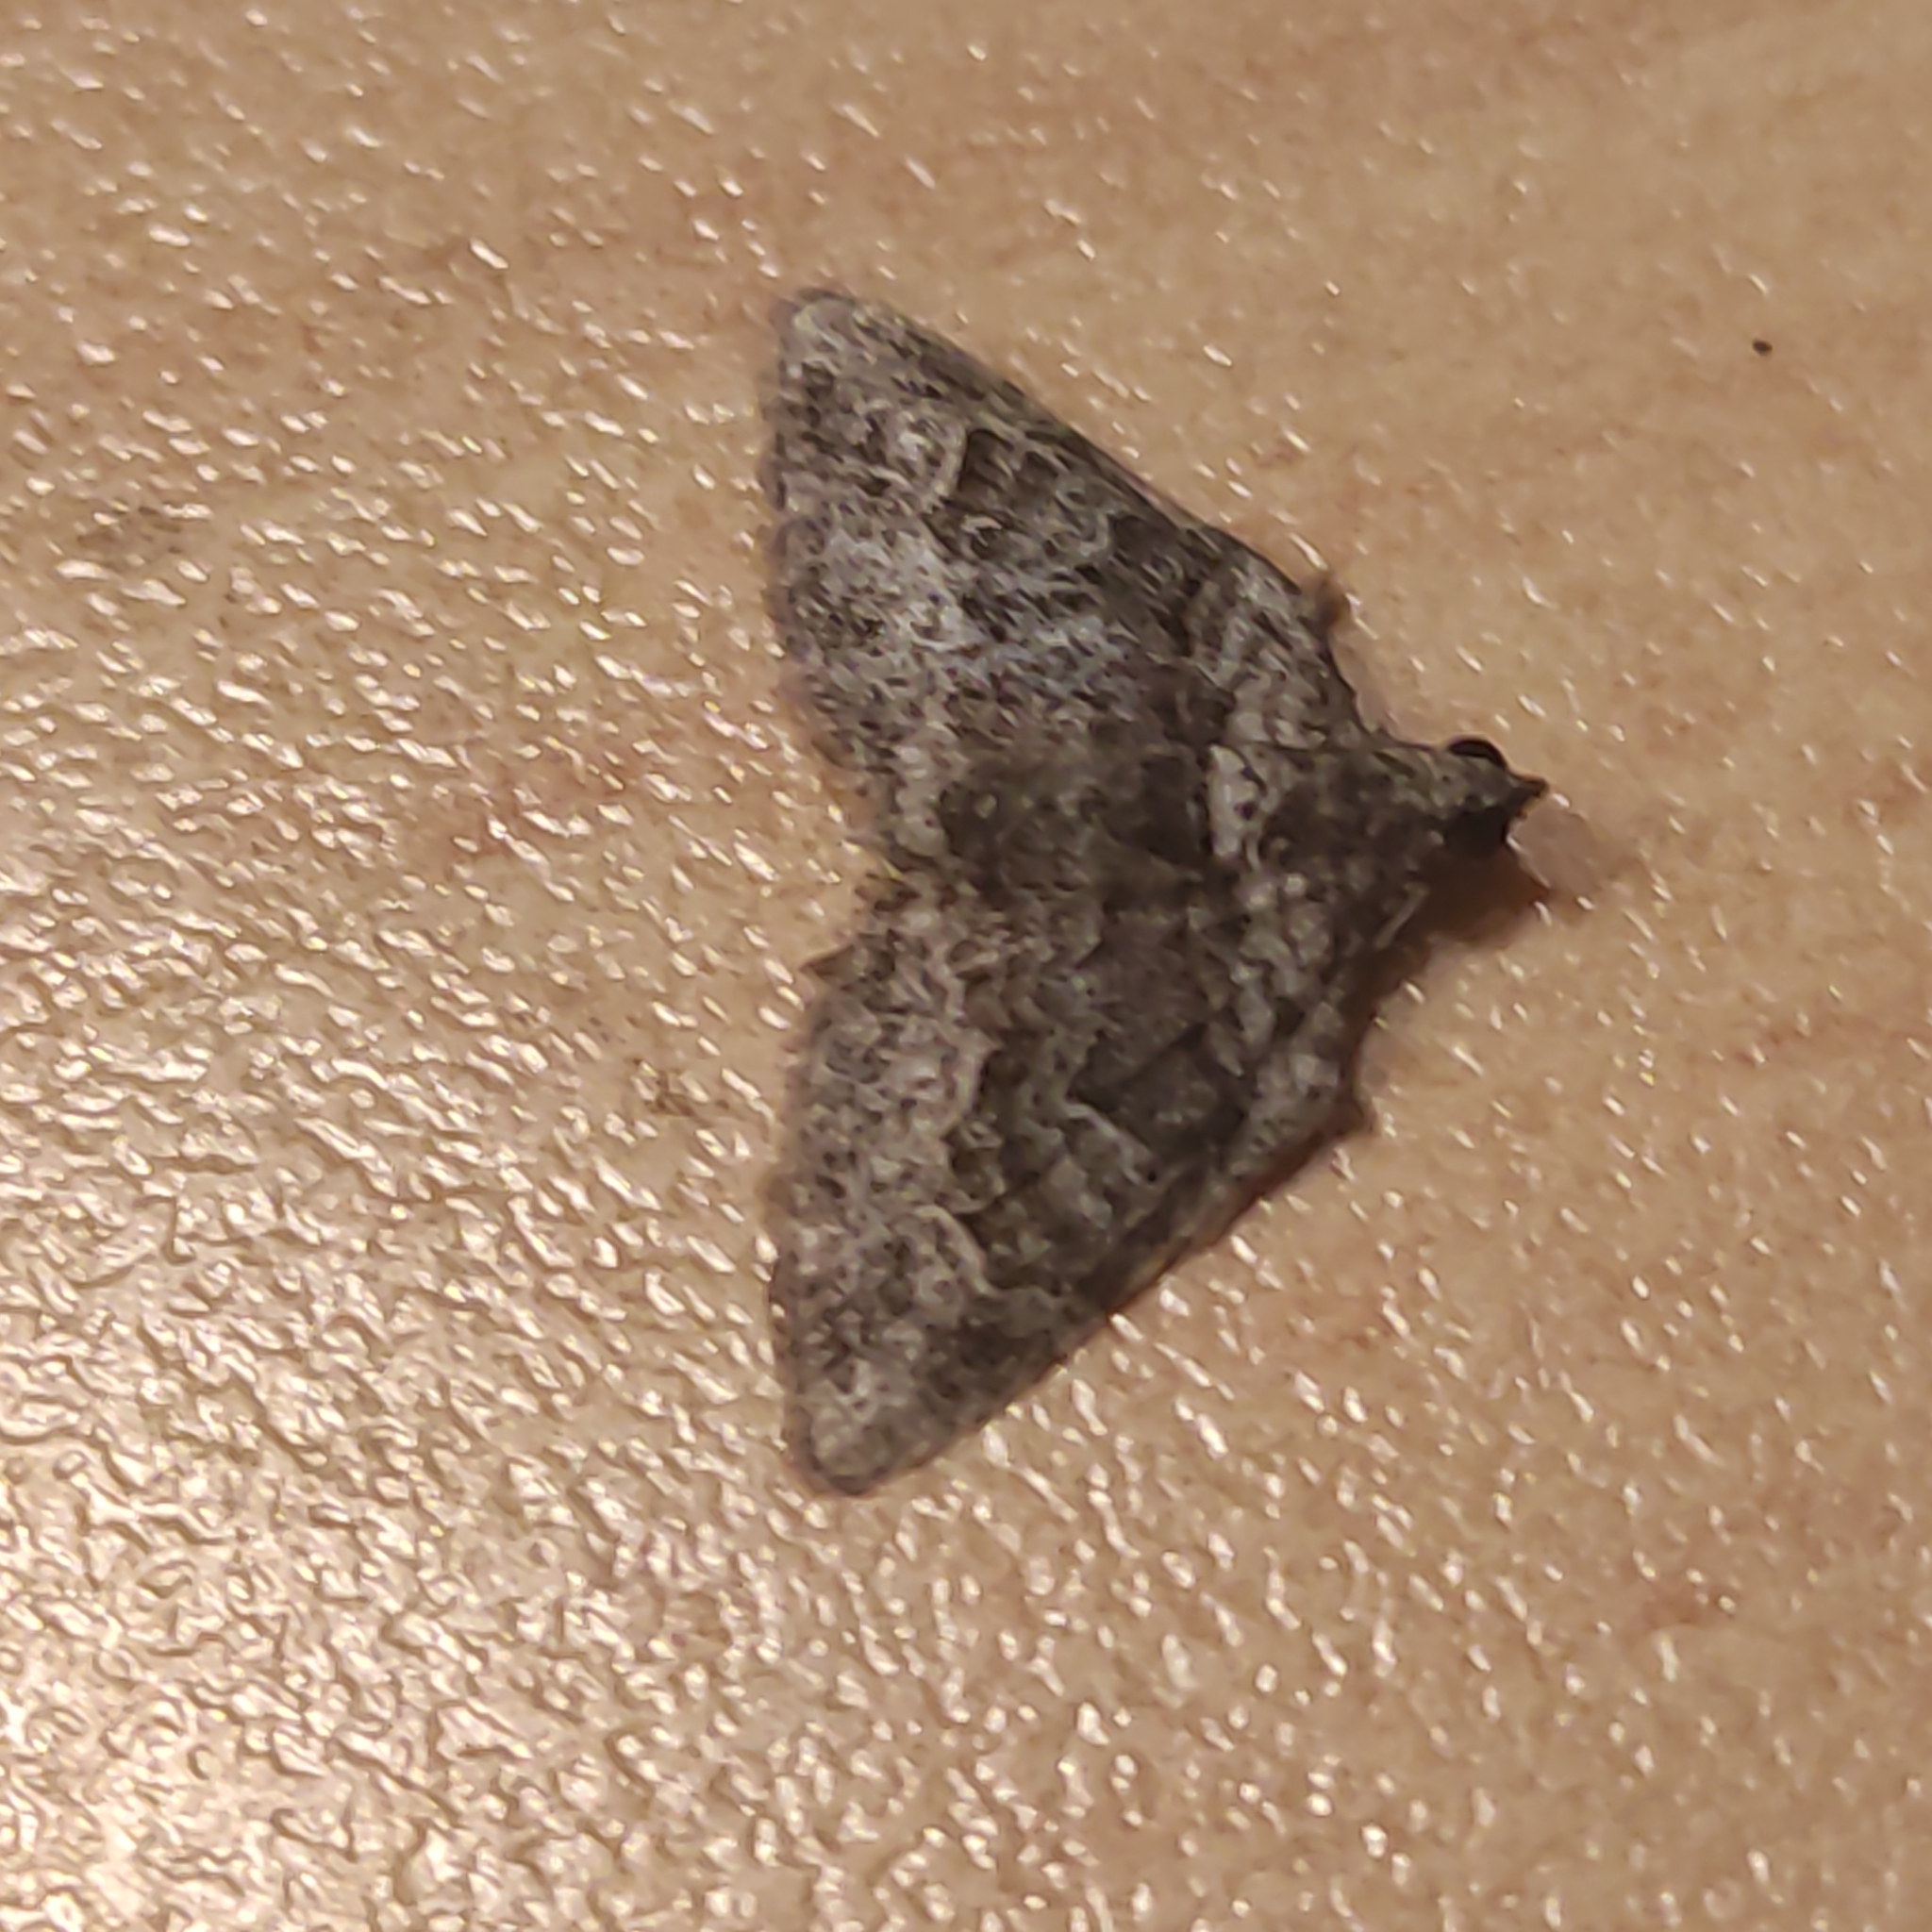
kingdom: Animalia
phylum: Arthropoda
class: Insecta
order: Lepidoptera
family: Geometridae
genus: Phrissogonus
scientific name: Phrissogonus laticostata
